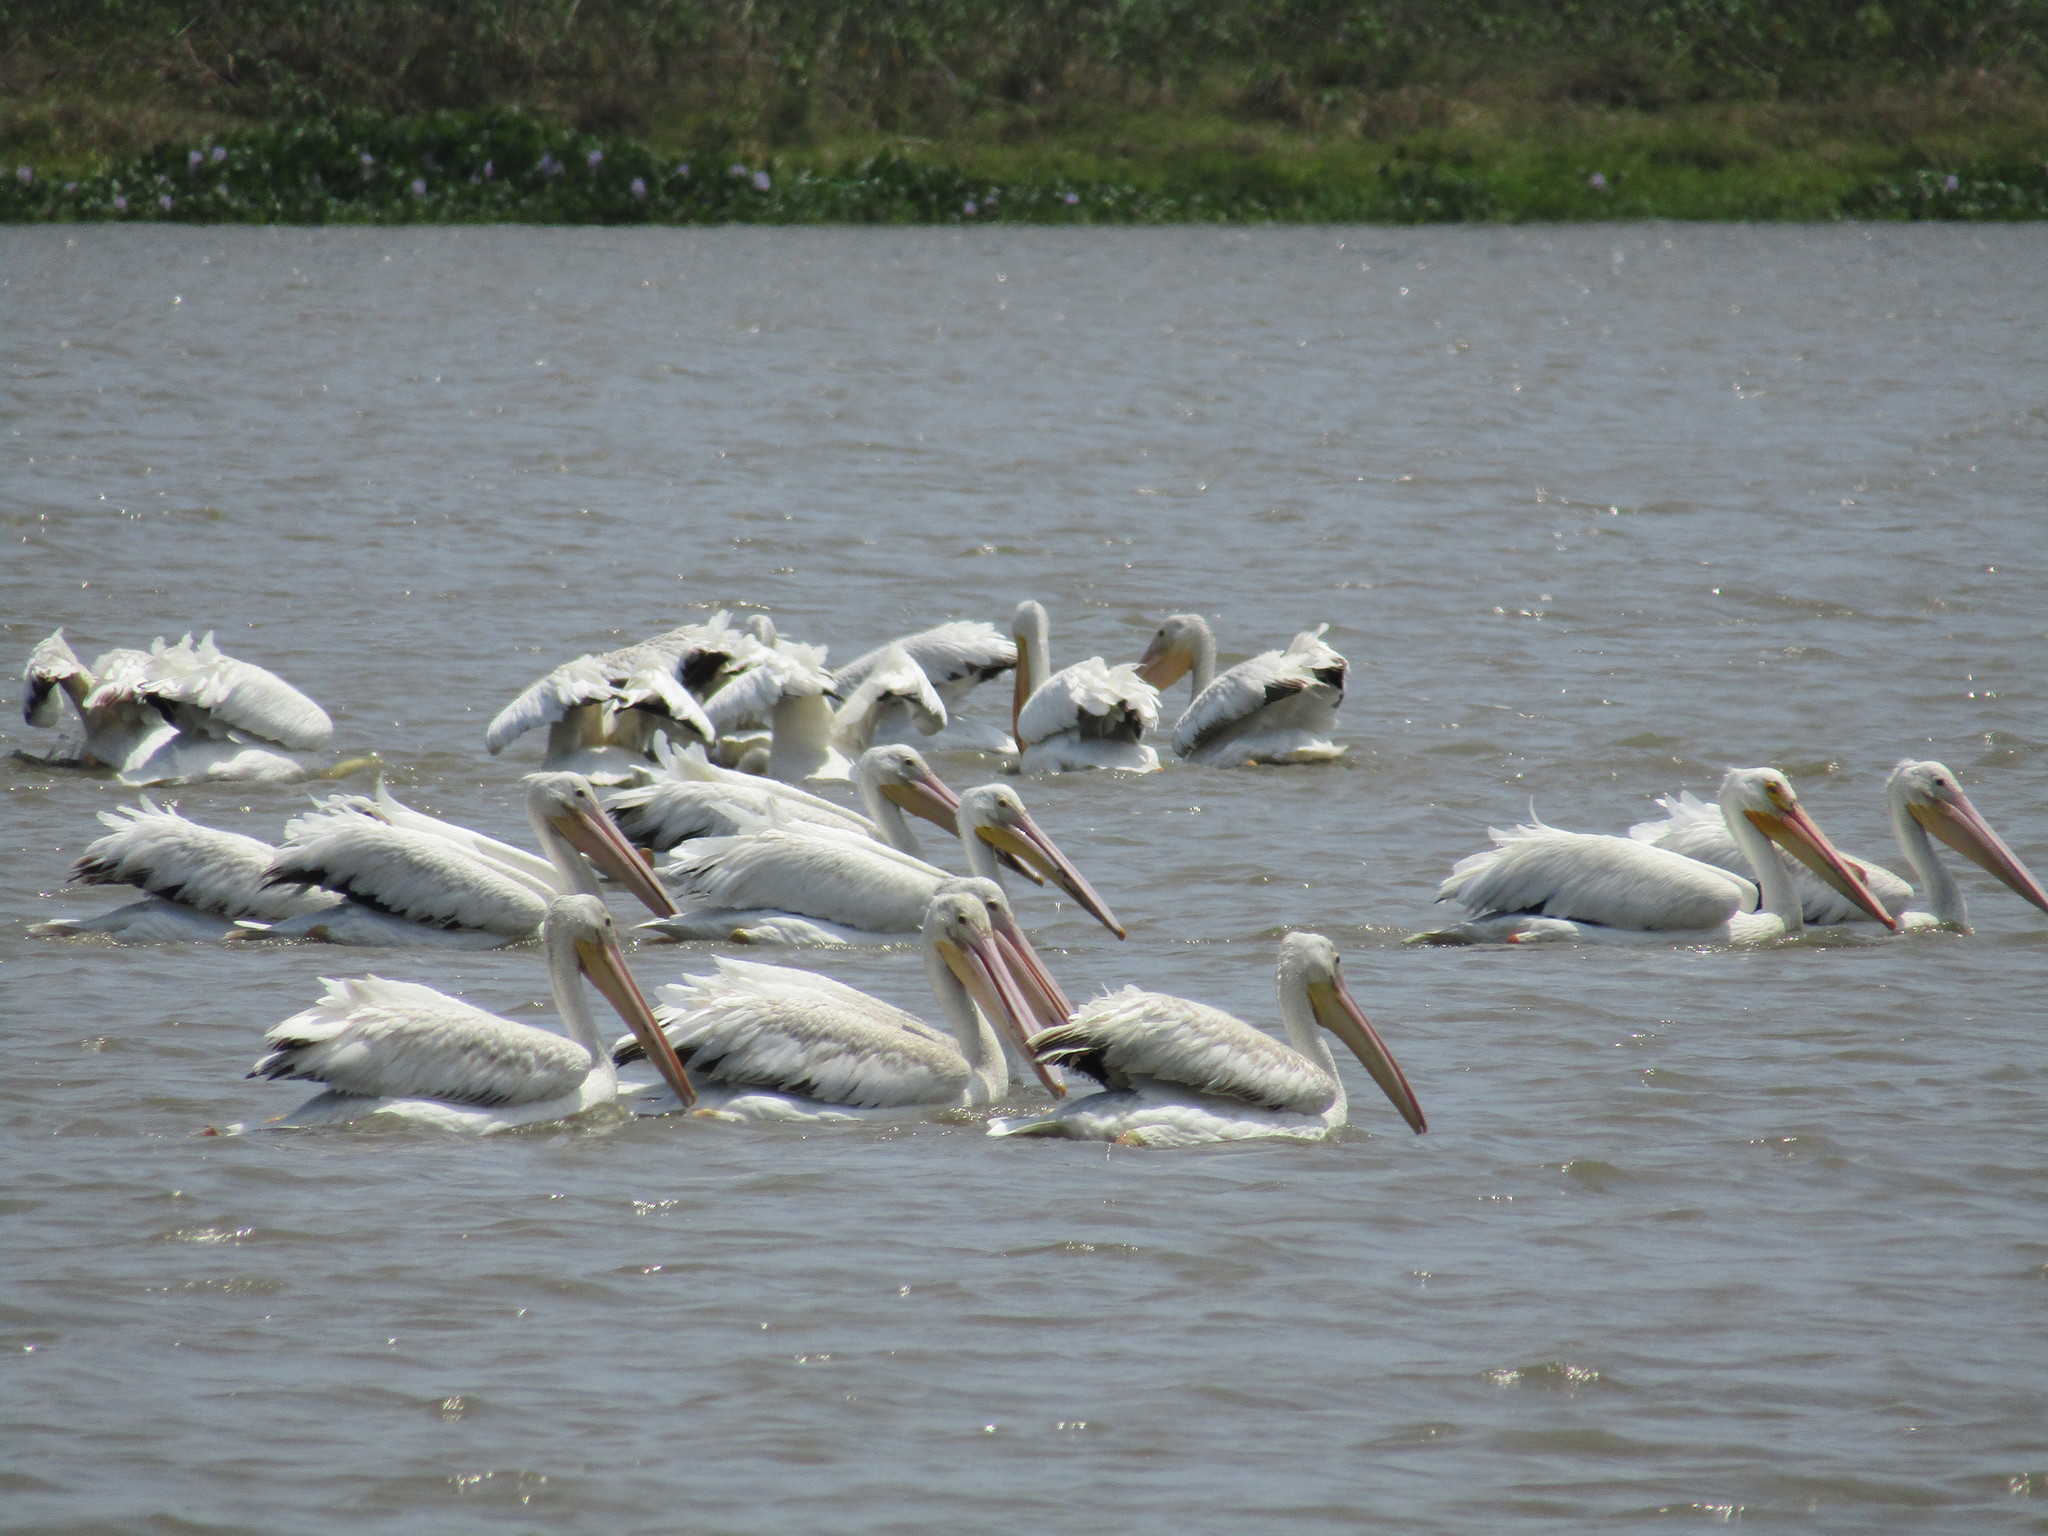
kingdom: Animalia
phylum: Chordata
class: Aves
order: Pelecaniformes
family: Pelecanidae
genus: Pelecanus
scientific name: Pelecanus erythrorhynchos
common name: American white pelican
